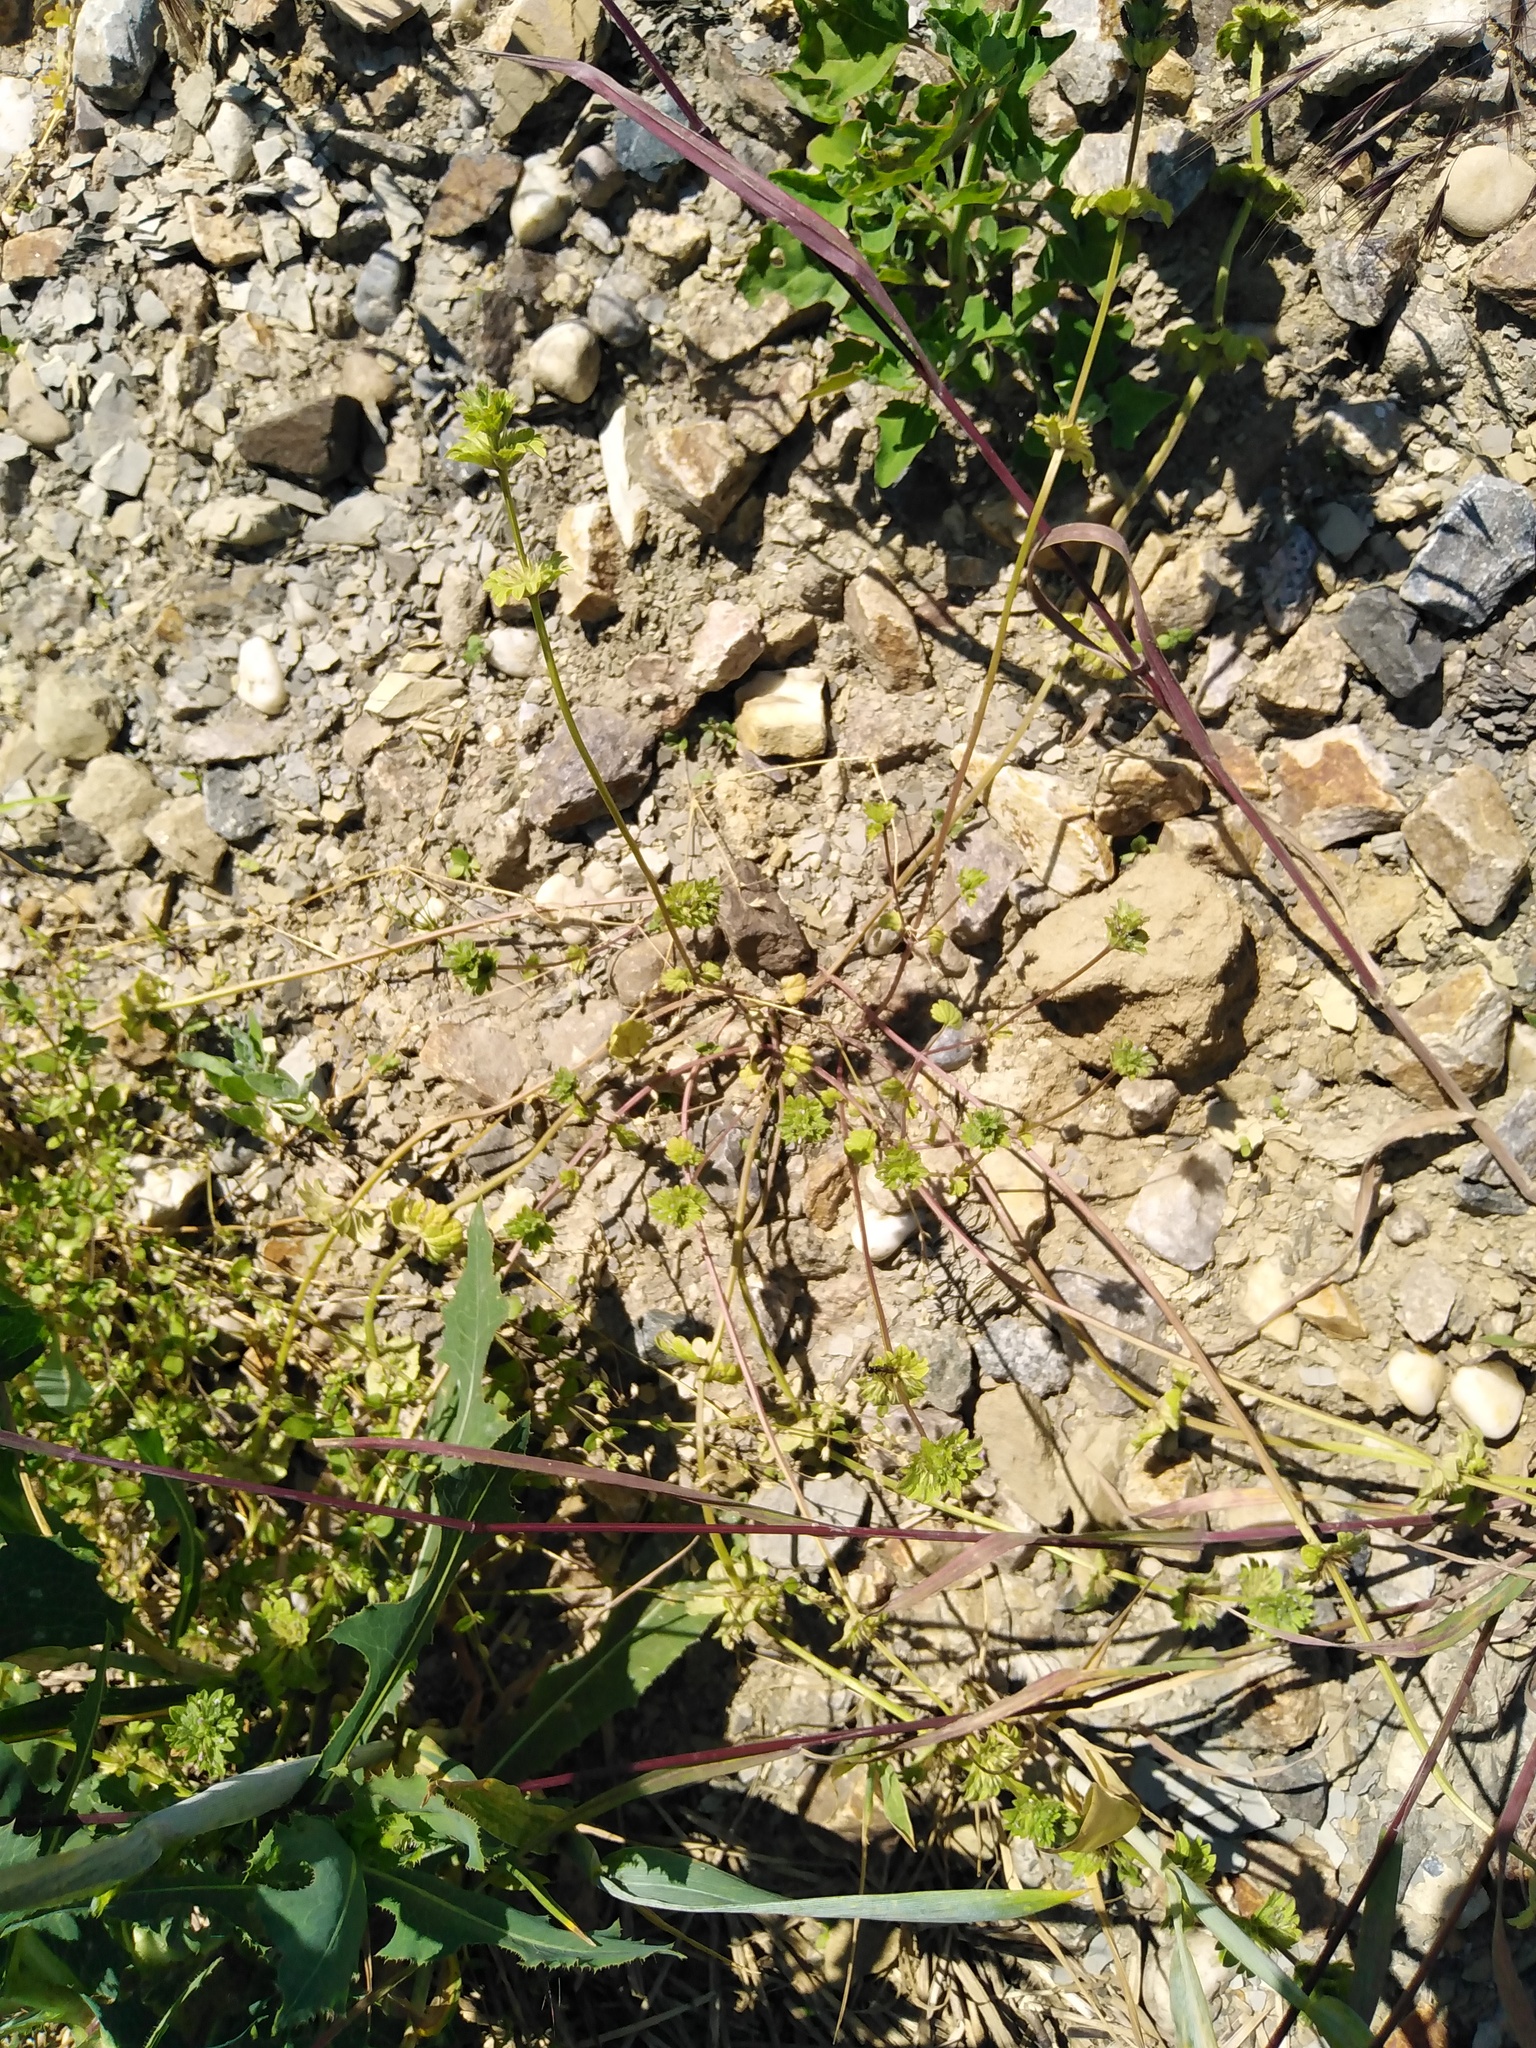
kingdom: Plantae
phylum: Tracheophyta
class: Magnoliopsida
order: Lamiales
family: Lamiaceae
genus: Lamium
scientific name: Lamium amplexicaule
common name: Henbit dead-nettle
